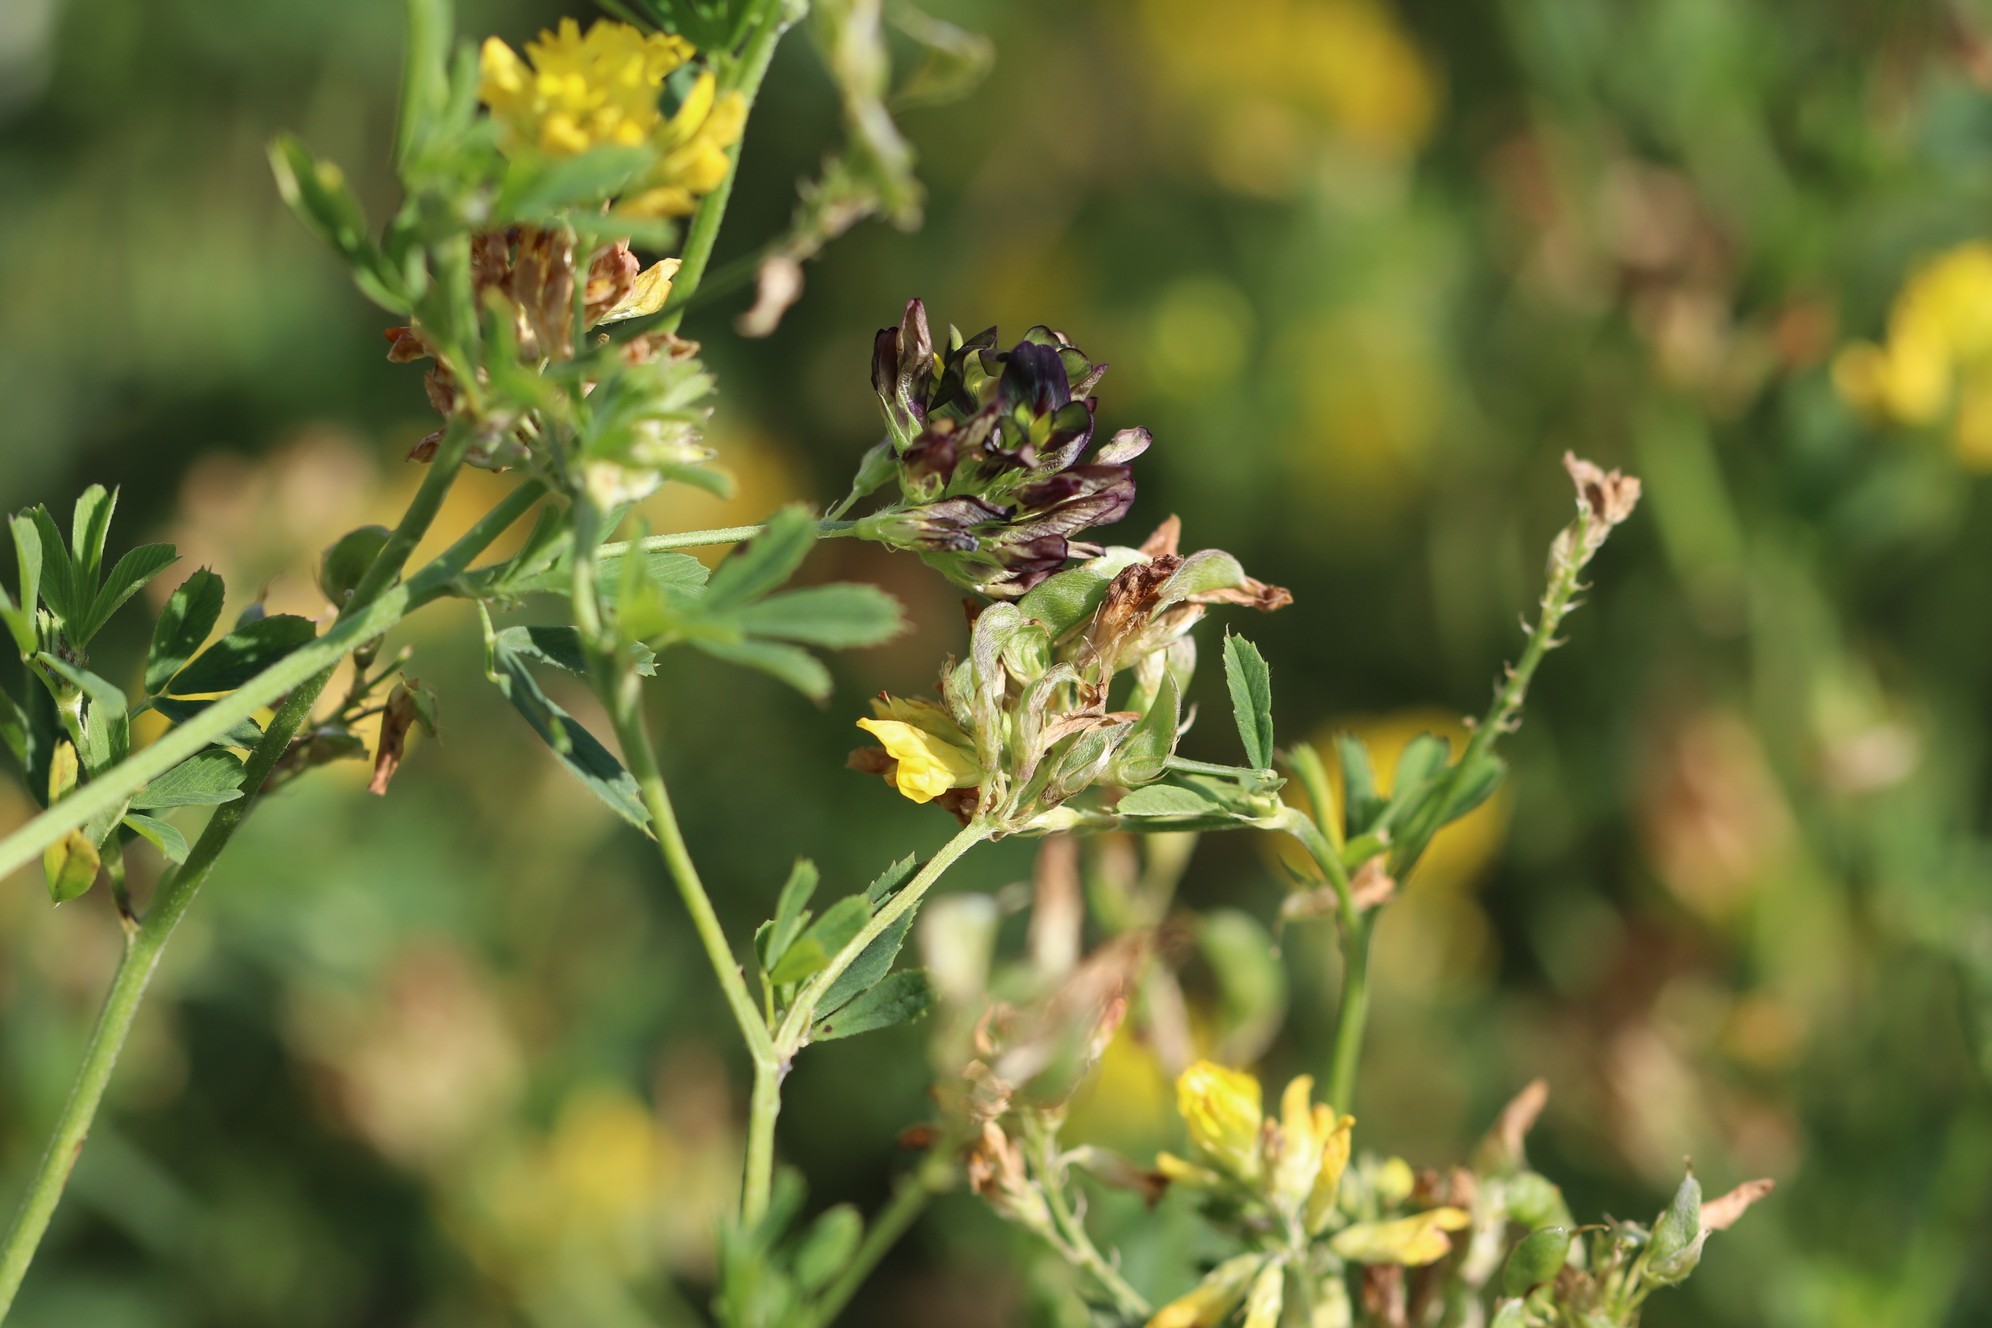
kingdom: Plantae
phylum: Tracheophyta
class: Magnoliopsida
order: Fabales
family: Fabaceae
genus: Medicago
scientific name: Medicago varia
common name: Sand lucerne
